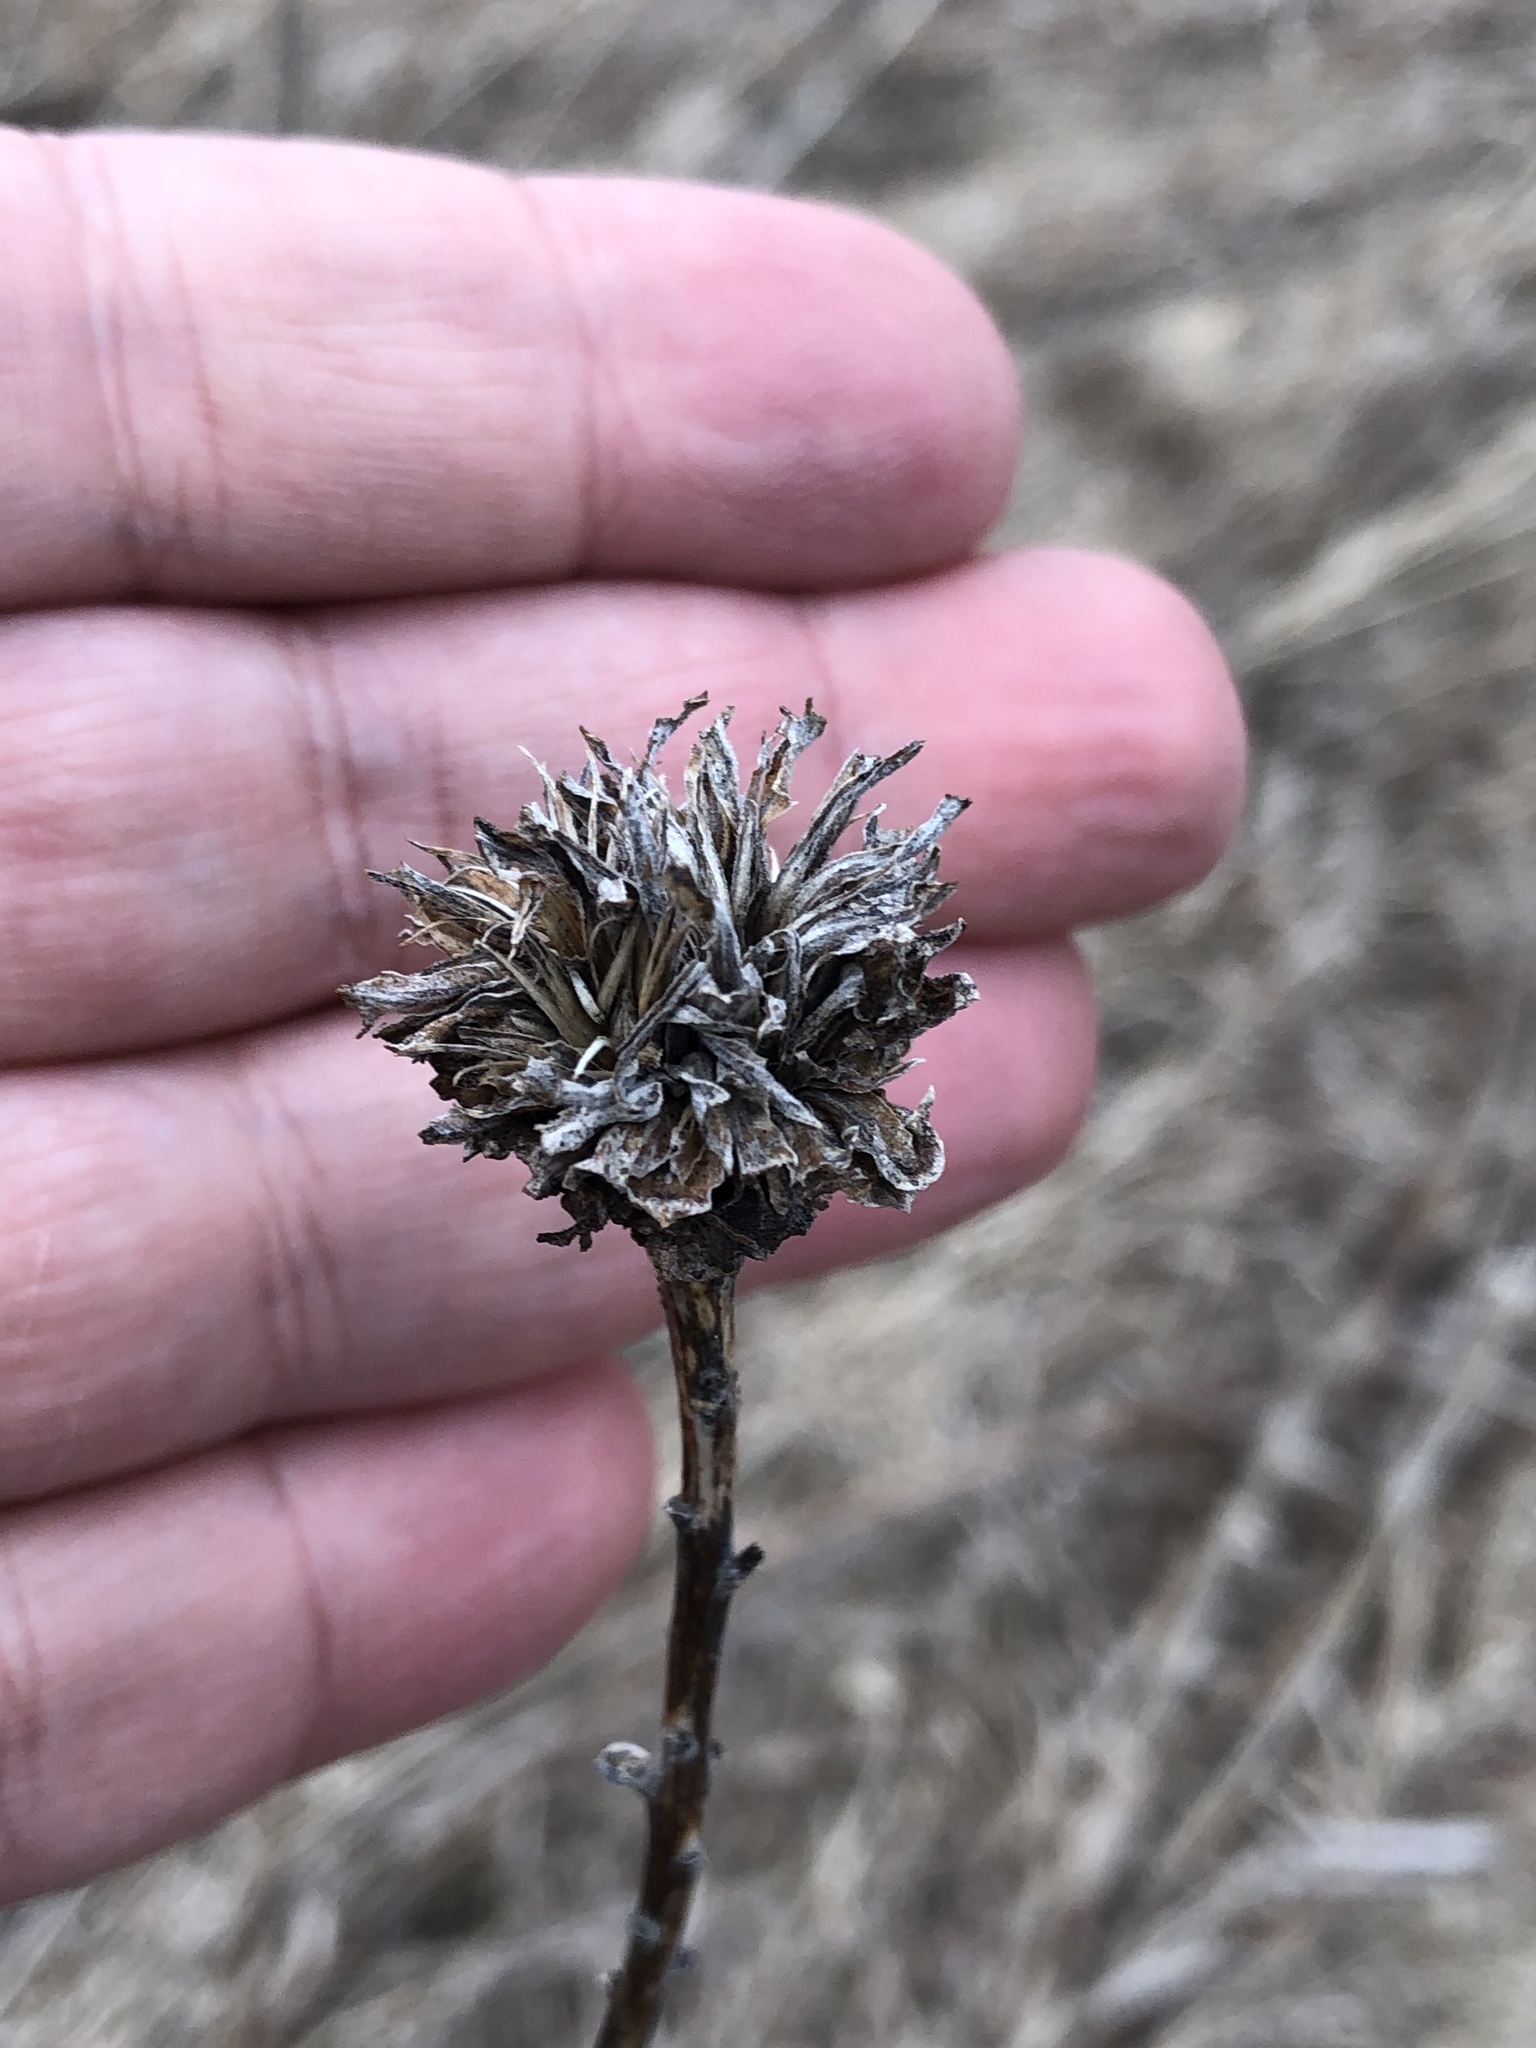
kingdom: Animalia
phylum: Arthropoda
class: Insecta
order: Diptera
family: Cecidomyiidae
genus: Rhopalomyia
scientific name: Rhopalomyia solidaginis
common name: Goldenrod bunch gall midge
